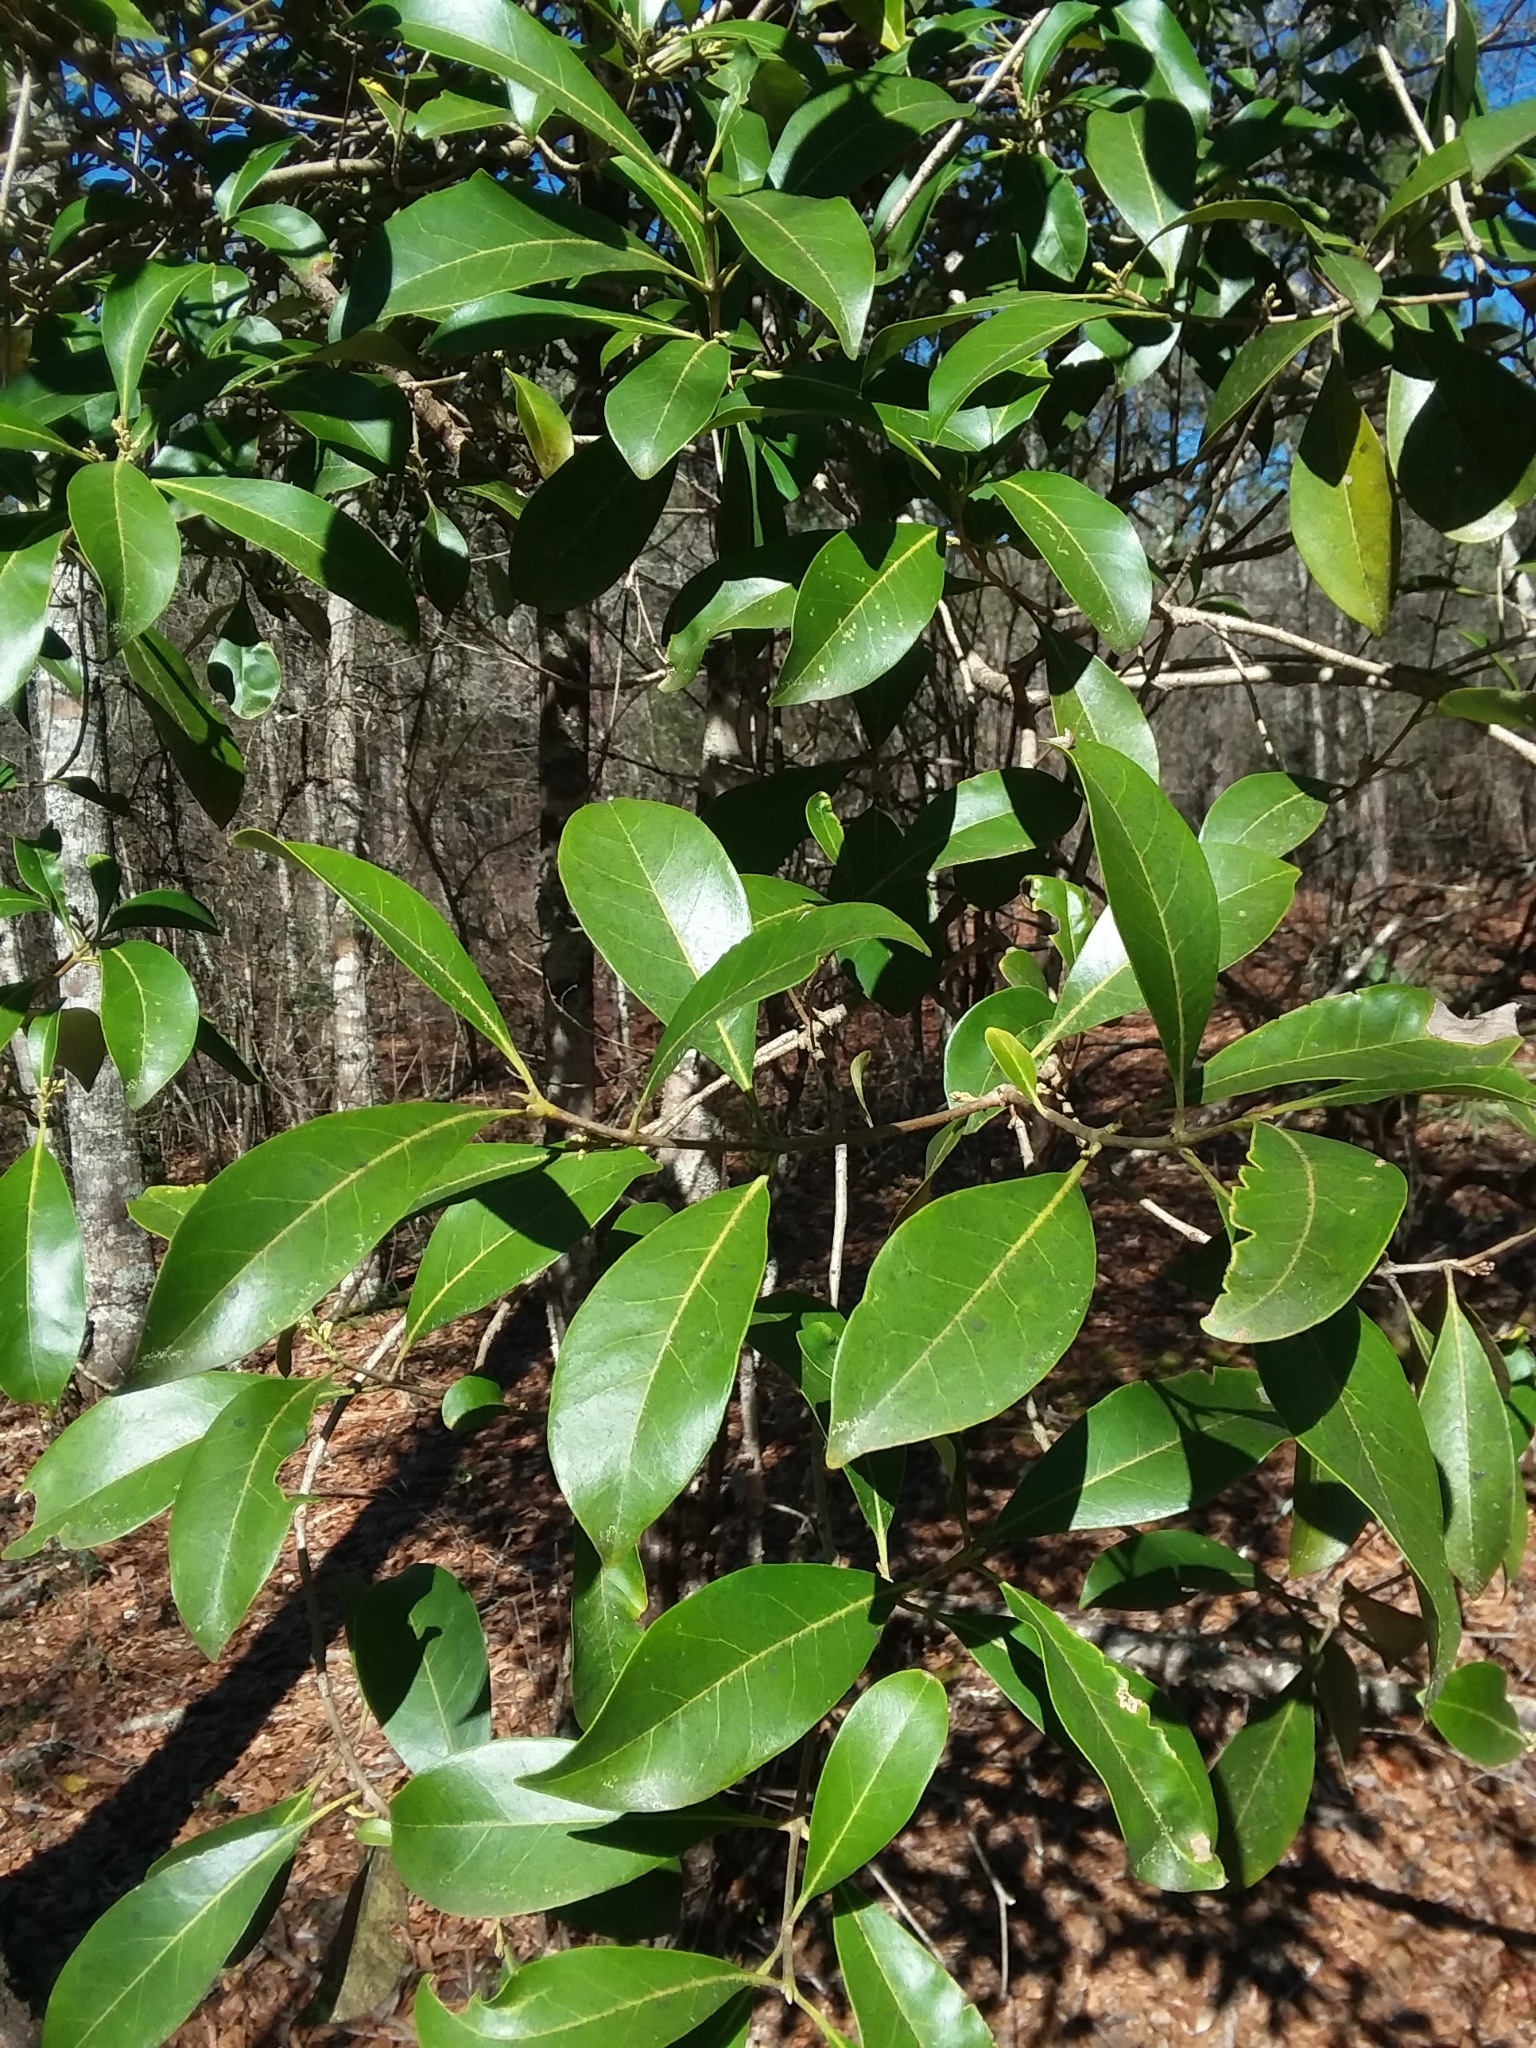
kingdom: Plantae
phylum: Tracheophyta
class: Magnoliopsida
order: Lamiales
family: Oleaceae
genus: Cartrema
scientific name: Cartrema americana
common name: Devilwood
